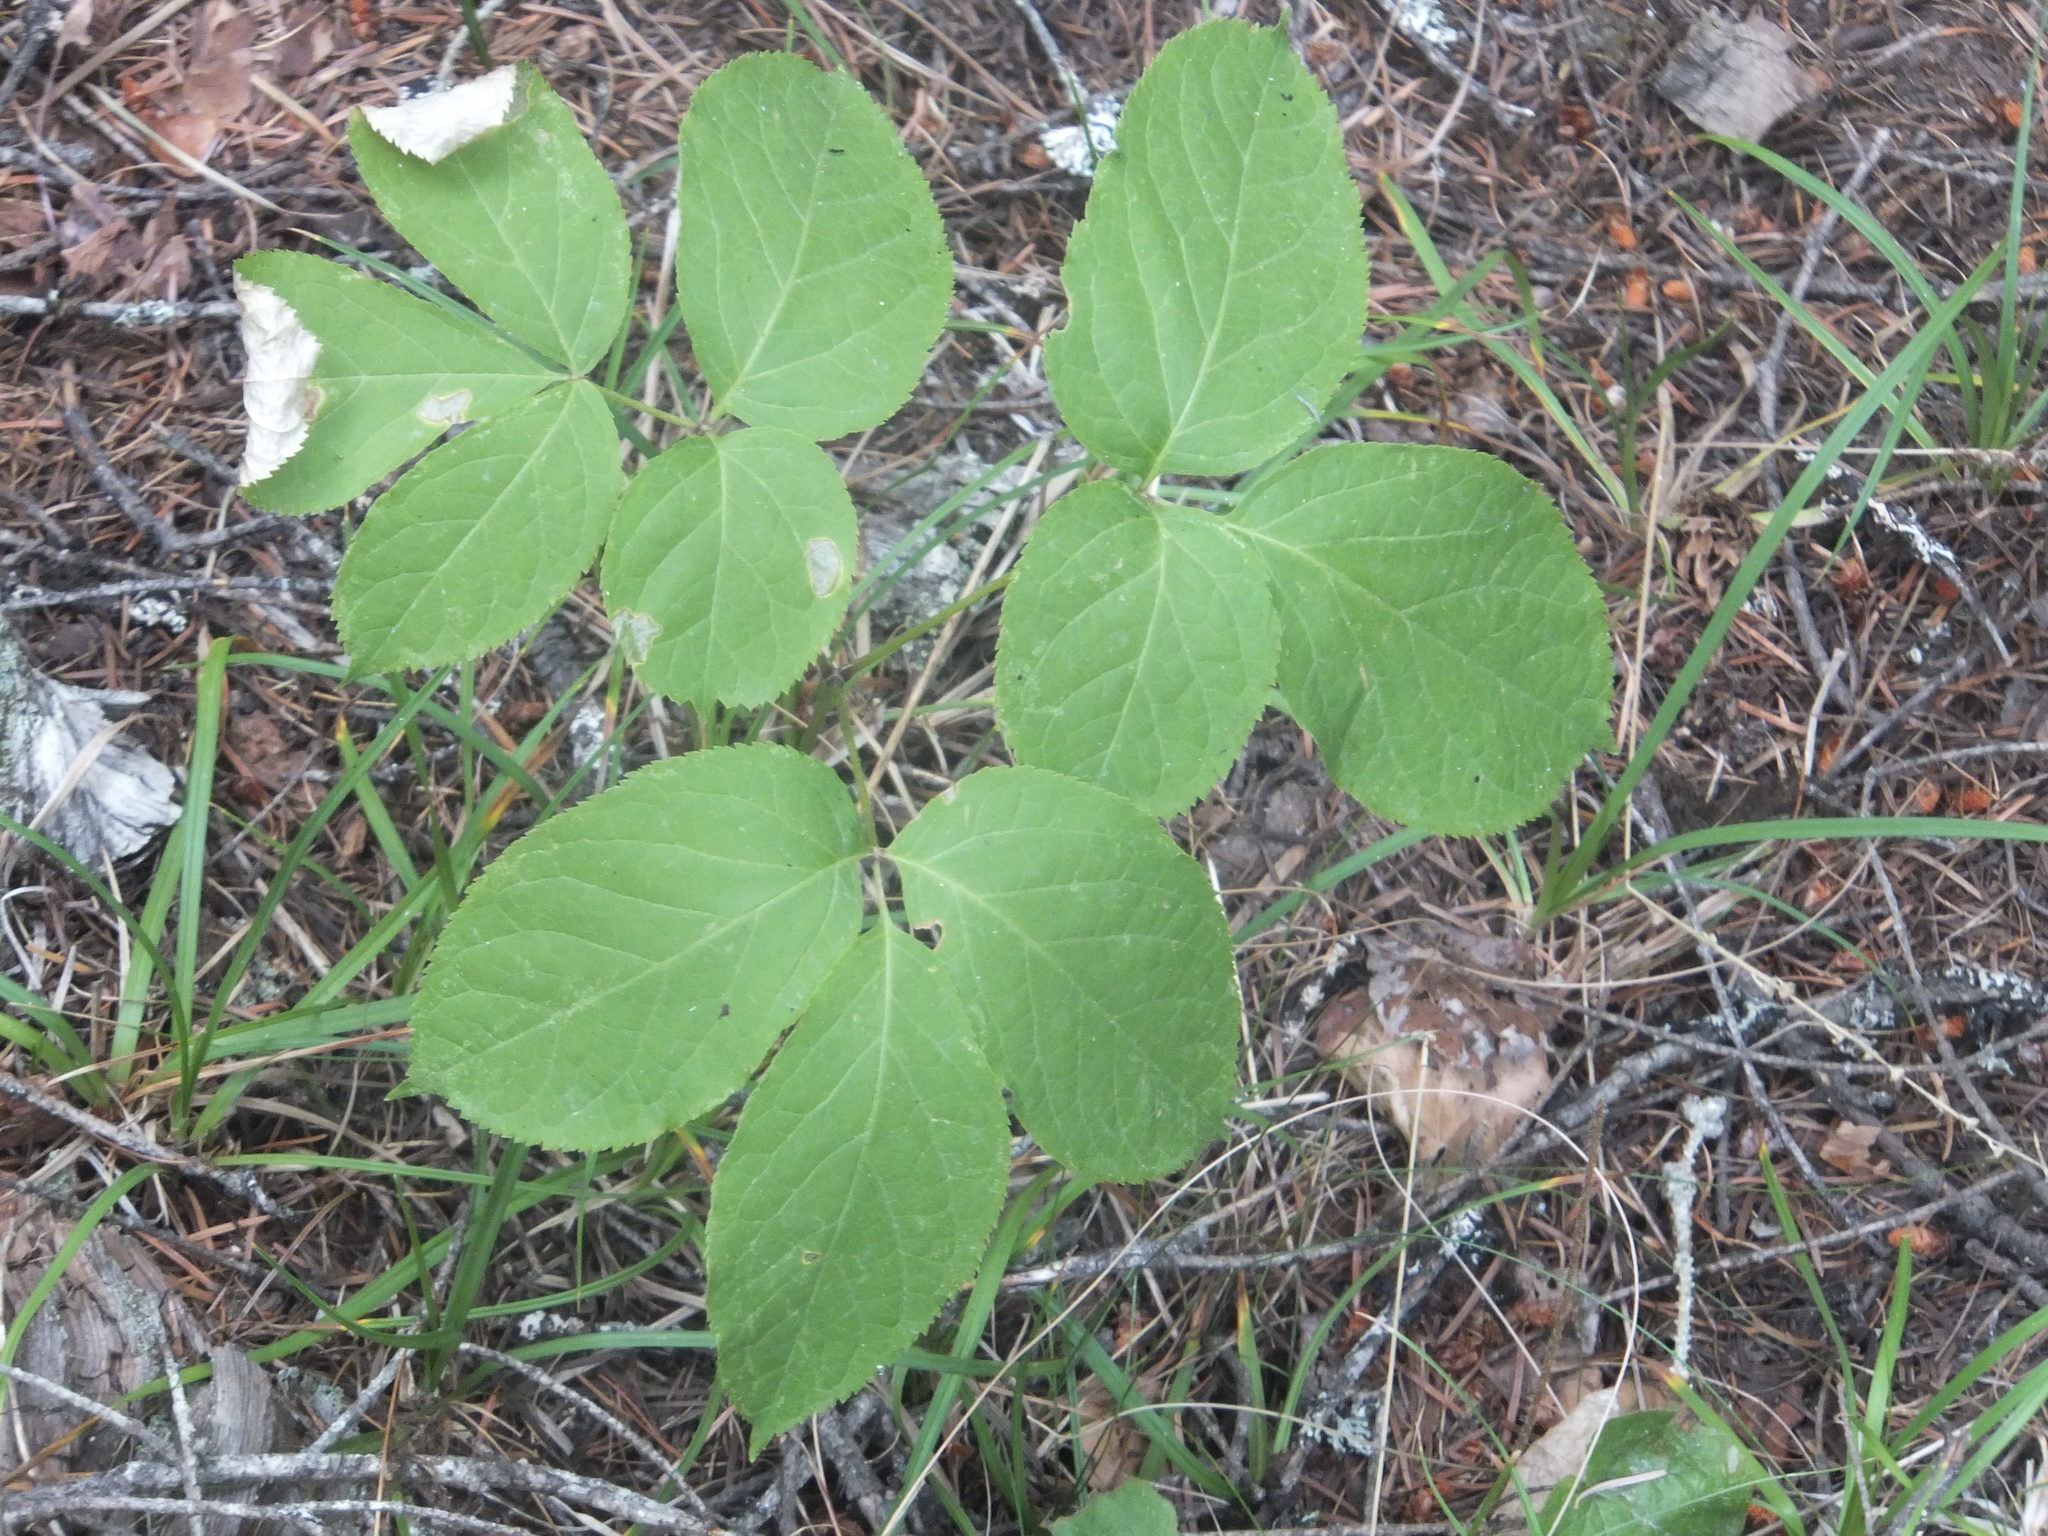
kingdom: Plantae
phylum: Tracheophyta
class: Magnoliopsida
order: Apiales
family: Araliaceae
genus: Aralia
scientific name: Aralia nudicaulis
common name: Wild sarsaparilla
